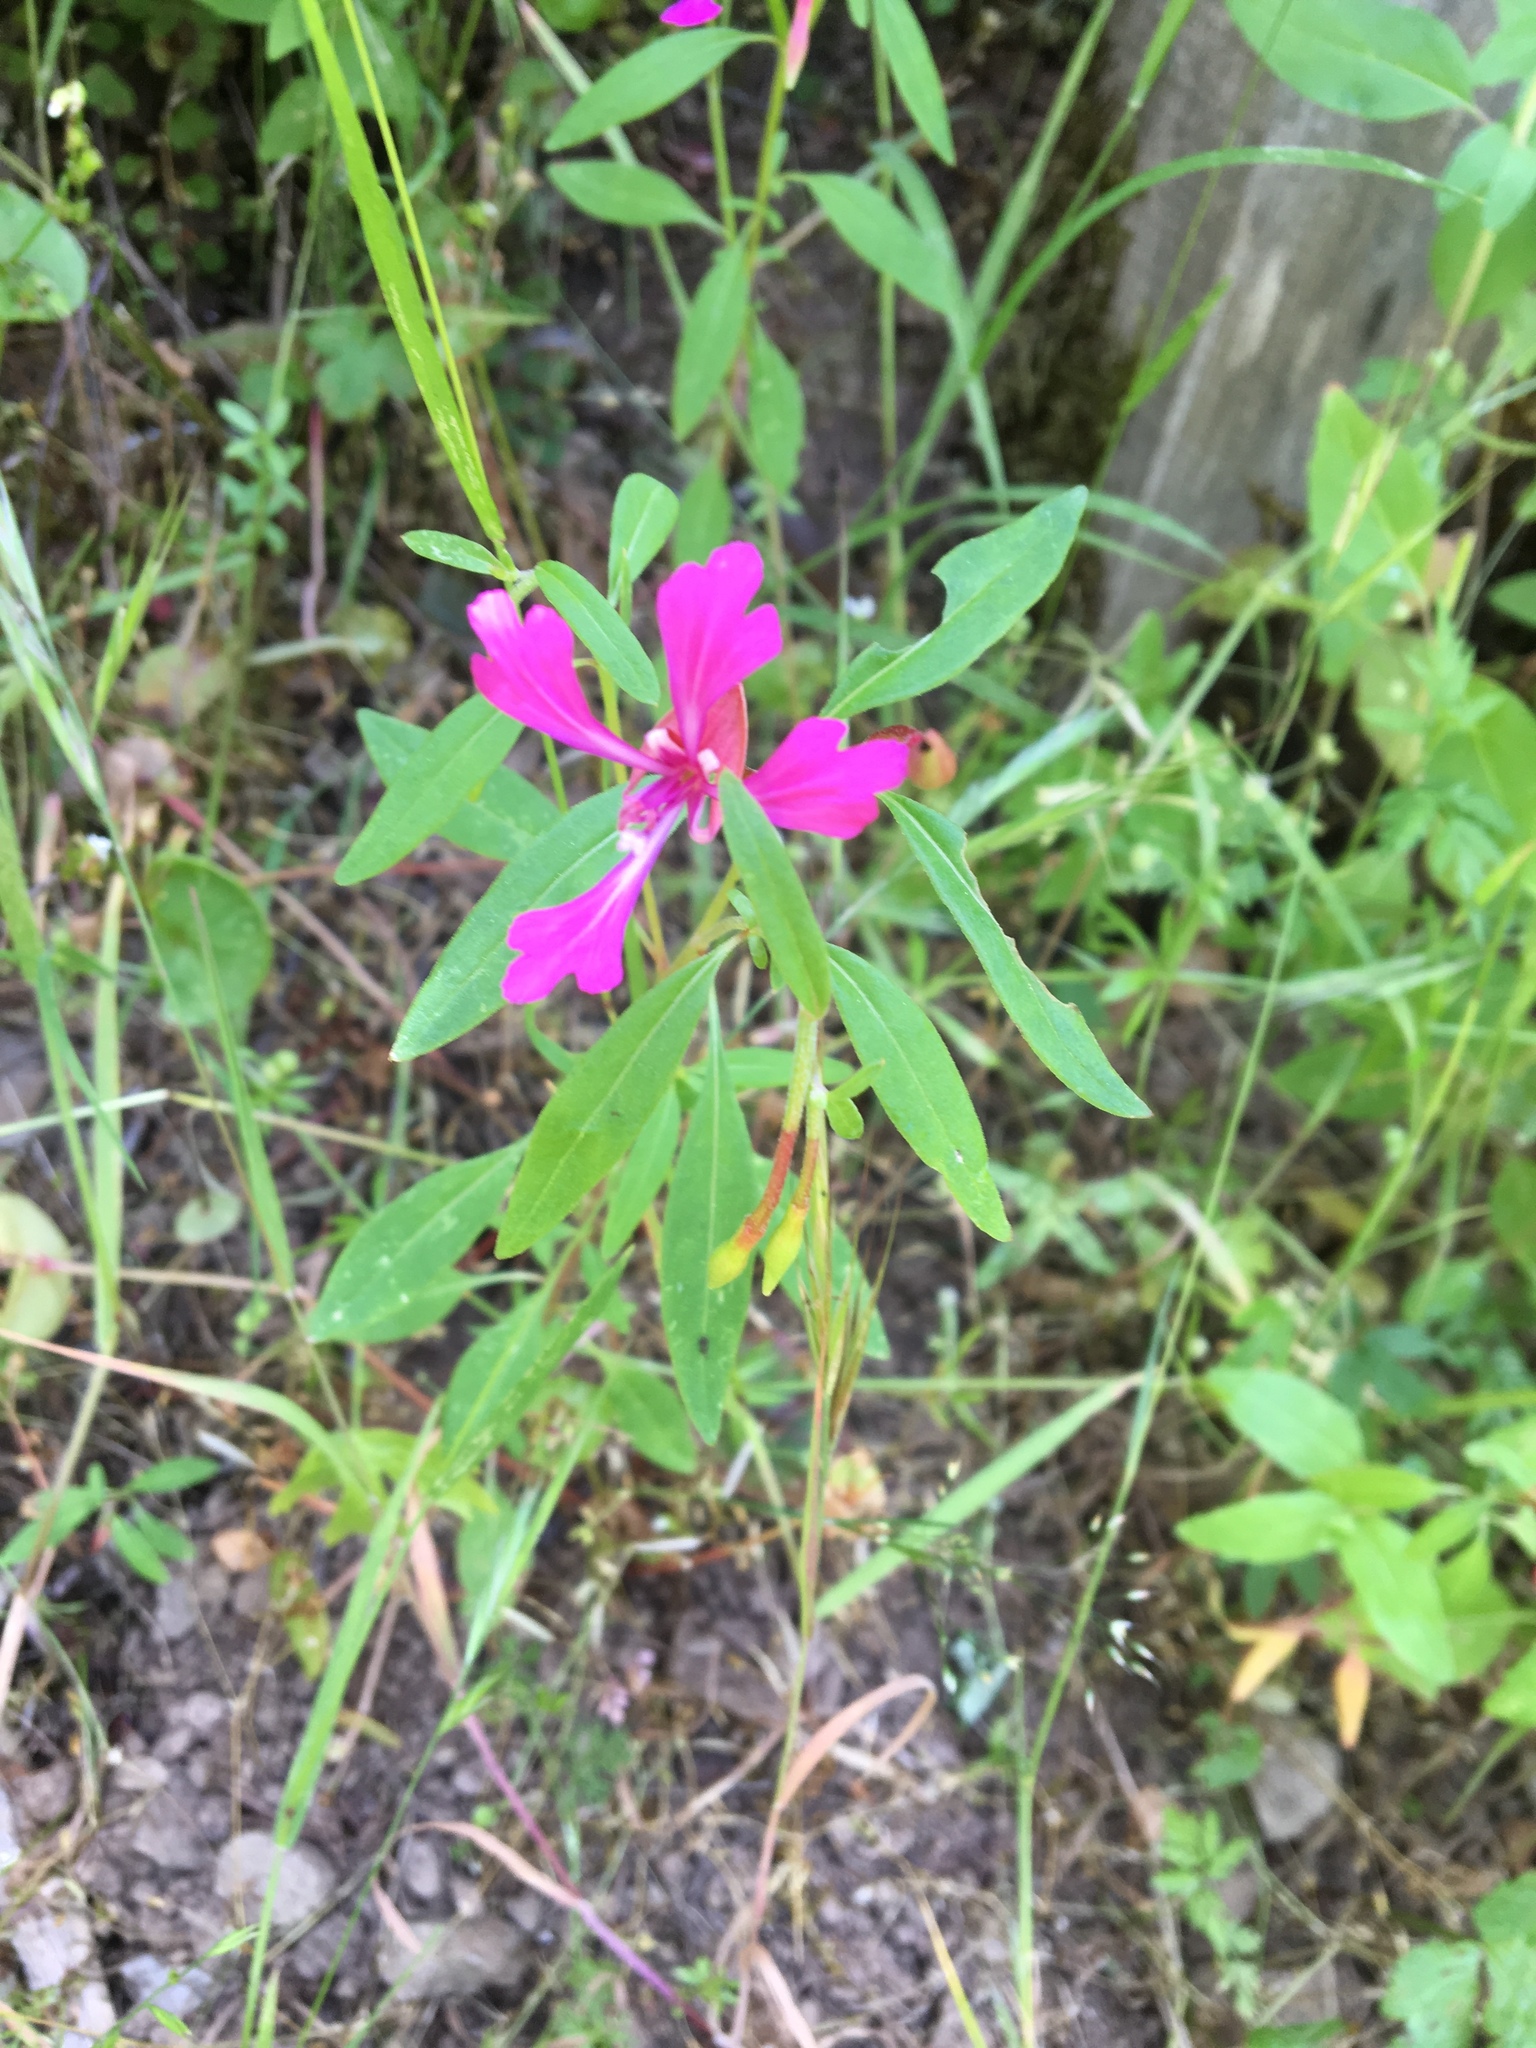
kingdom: Plantae
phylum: Tracheophyta
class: Magnoliopsida
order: Myrtales
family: Onagraceae
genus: Clarkia
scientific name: Clarkia concinna
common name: Red-ribbons
